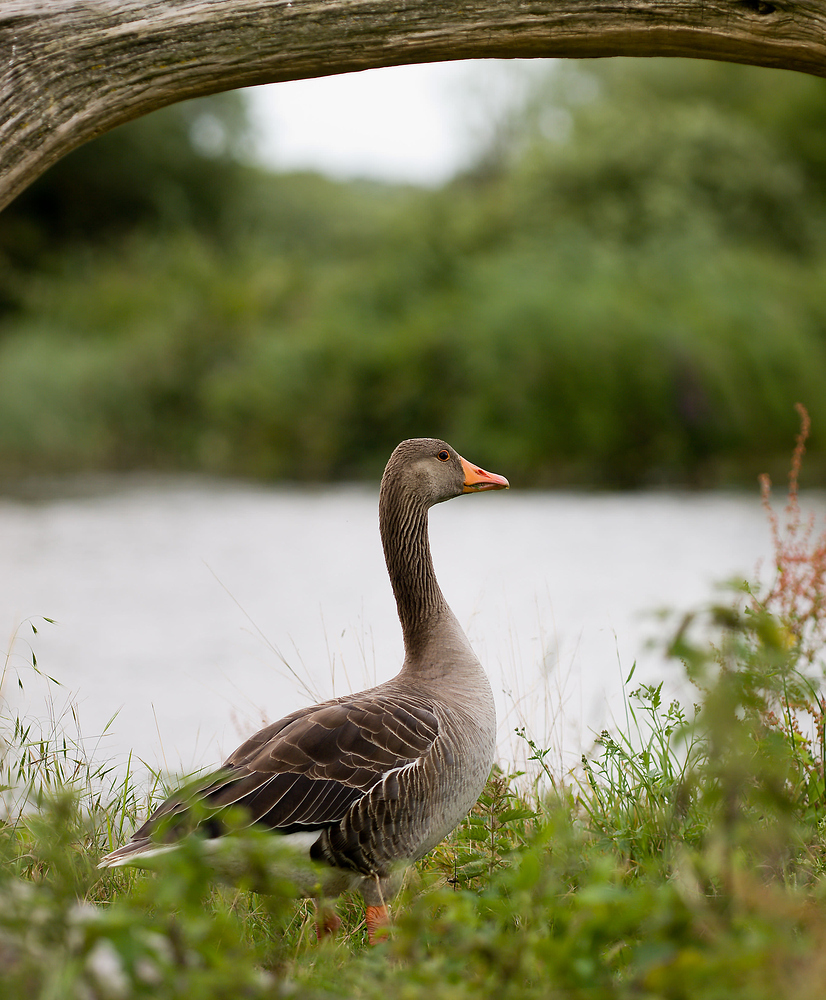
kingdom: Animalia
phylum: Chordata
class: Aves
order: Anseriformes
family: Anatidae
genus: Anser
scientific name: Anser anser
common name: Greylag goose
